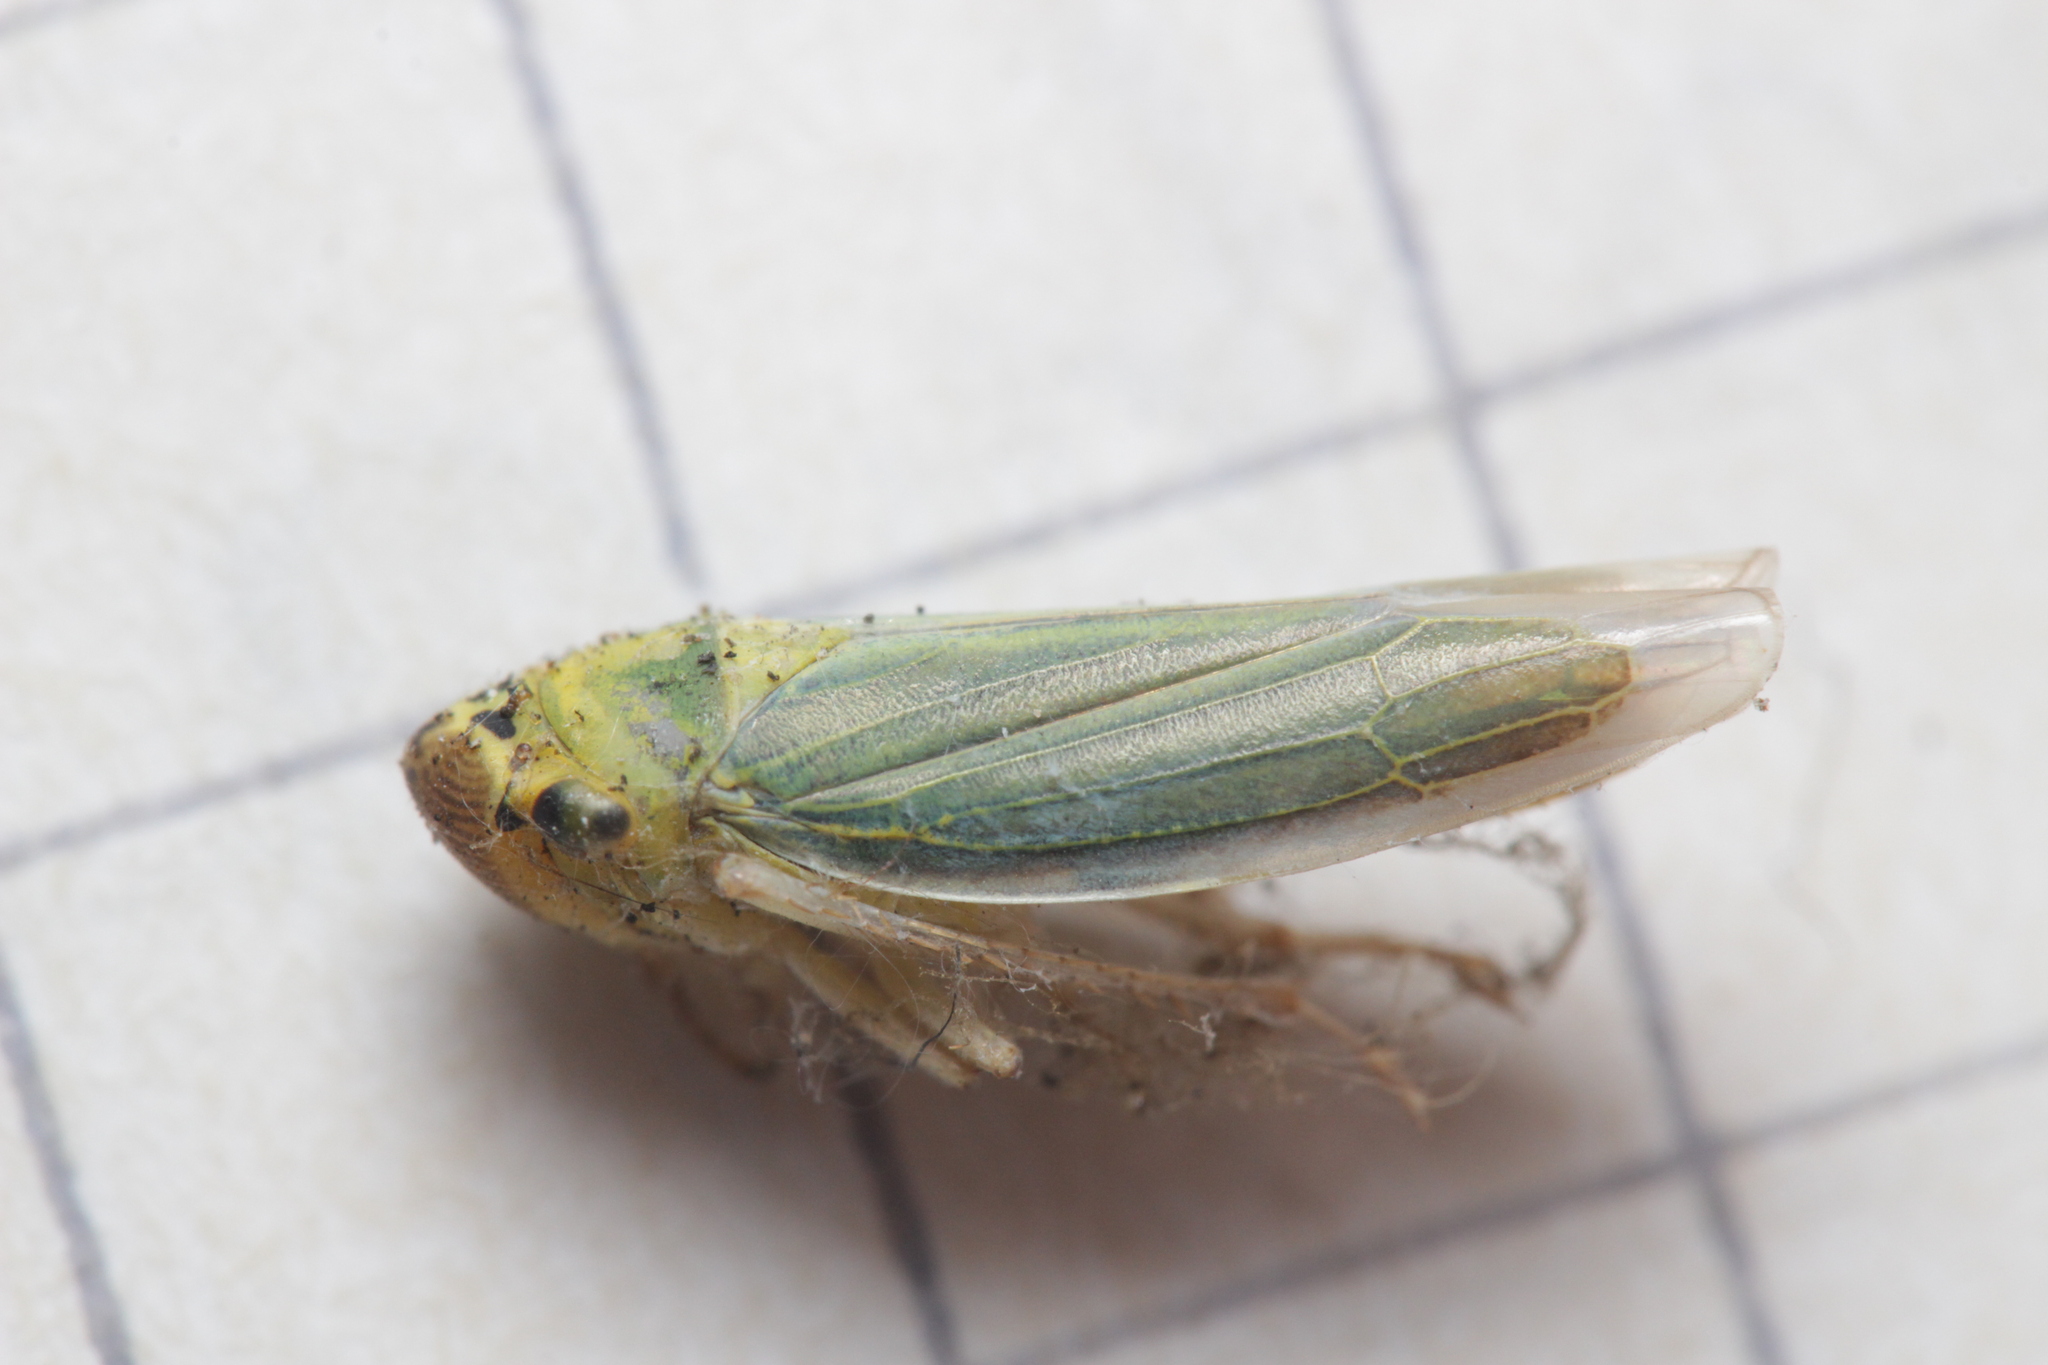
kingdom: Animalia
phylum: Arthropoda
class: Insecta
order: Hemiptera
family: Cicadellidae
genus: Cicadella
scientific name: Cicadella viridis
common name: Leafhopper
